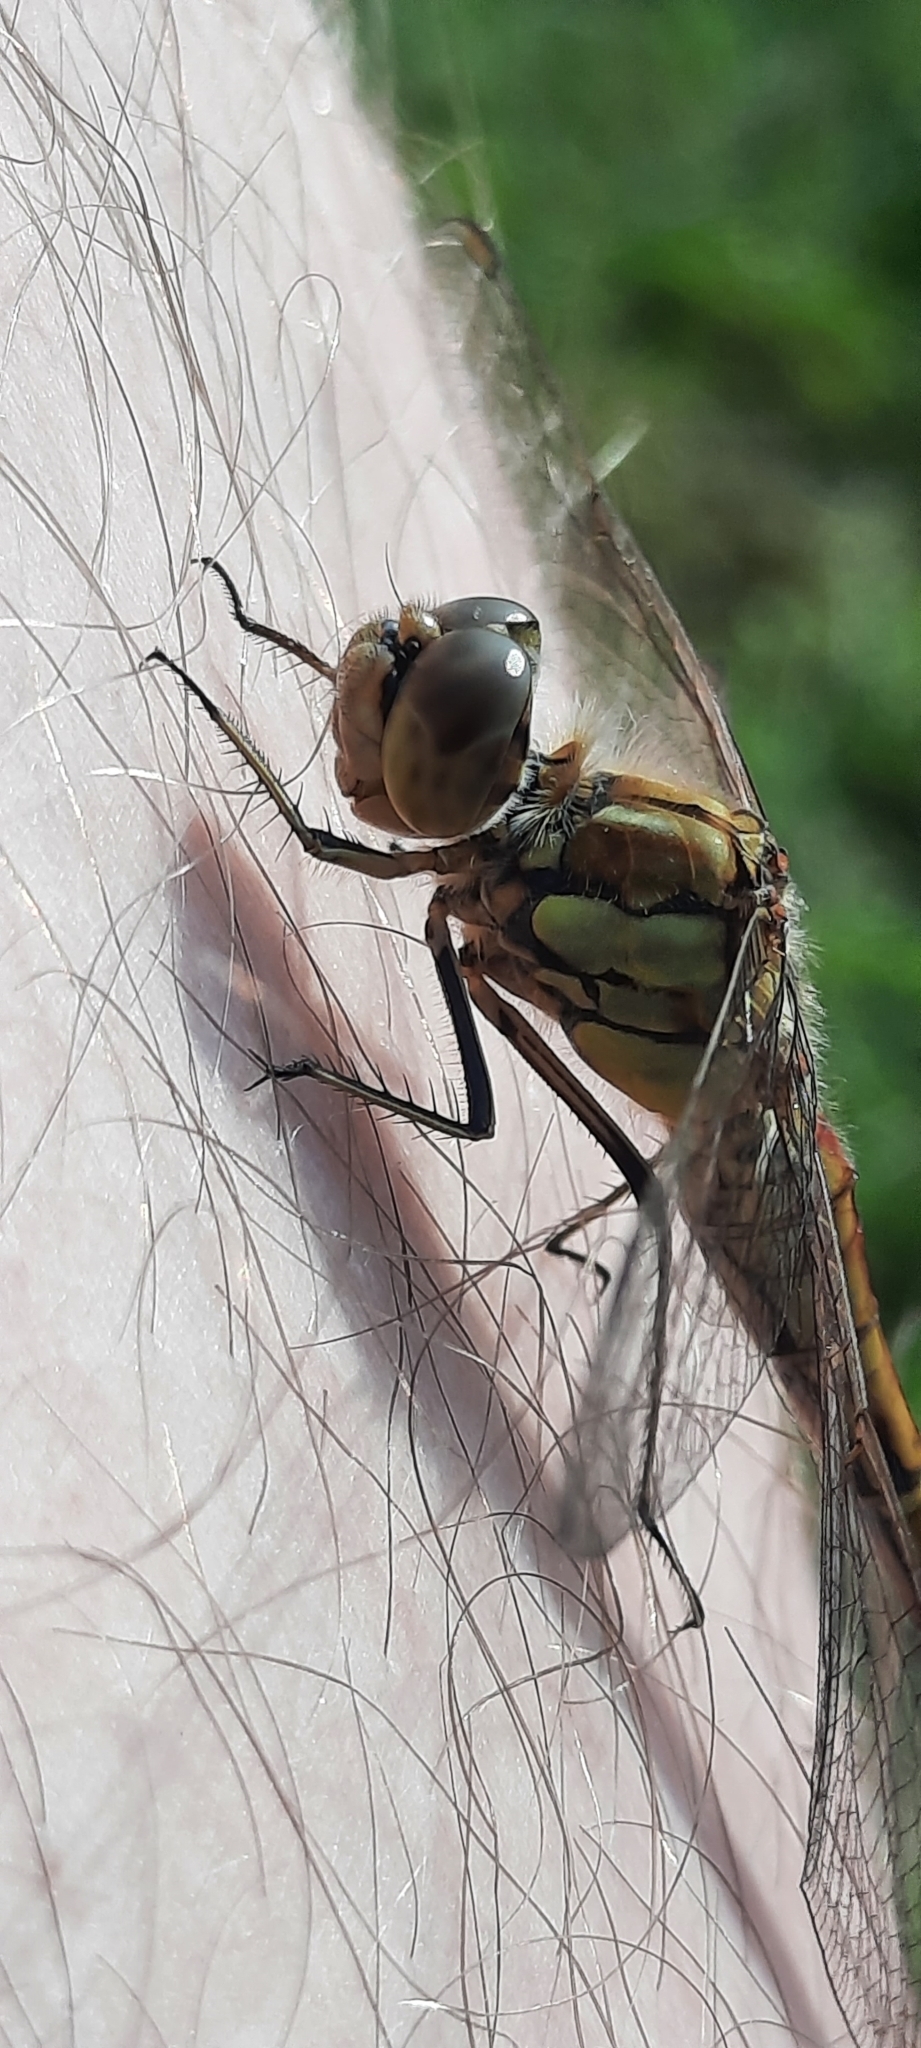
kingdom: Animalia
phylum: Arthropoda
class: Insecta
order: Odonata
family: Libellulidae
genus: Sympetrum
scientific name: Sympetrum vulgatum
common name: Vagrant darter
